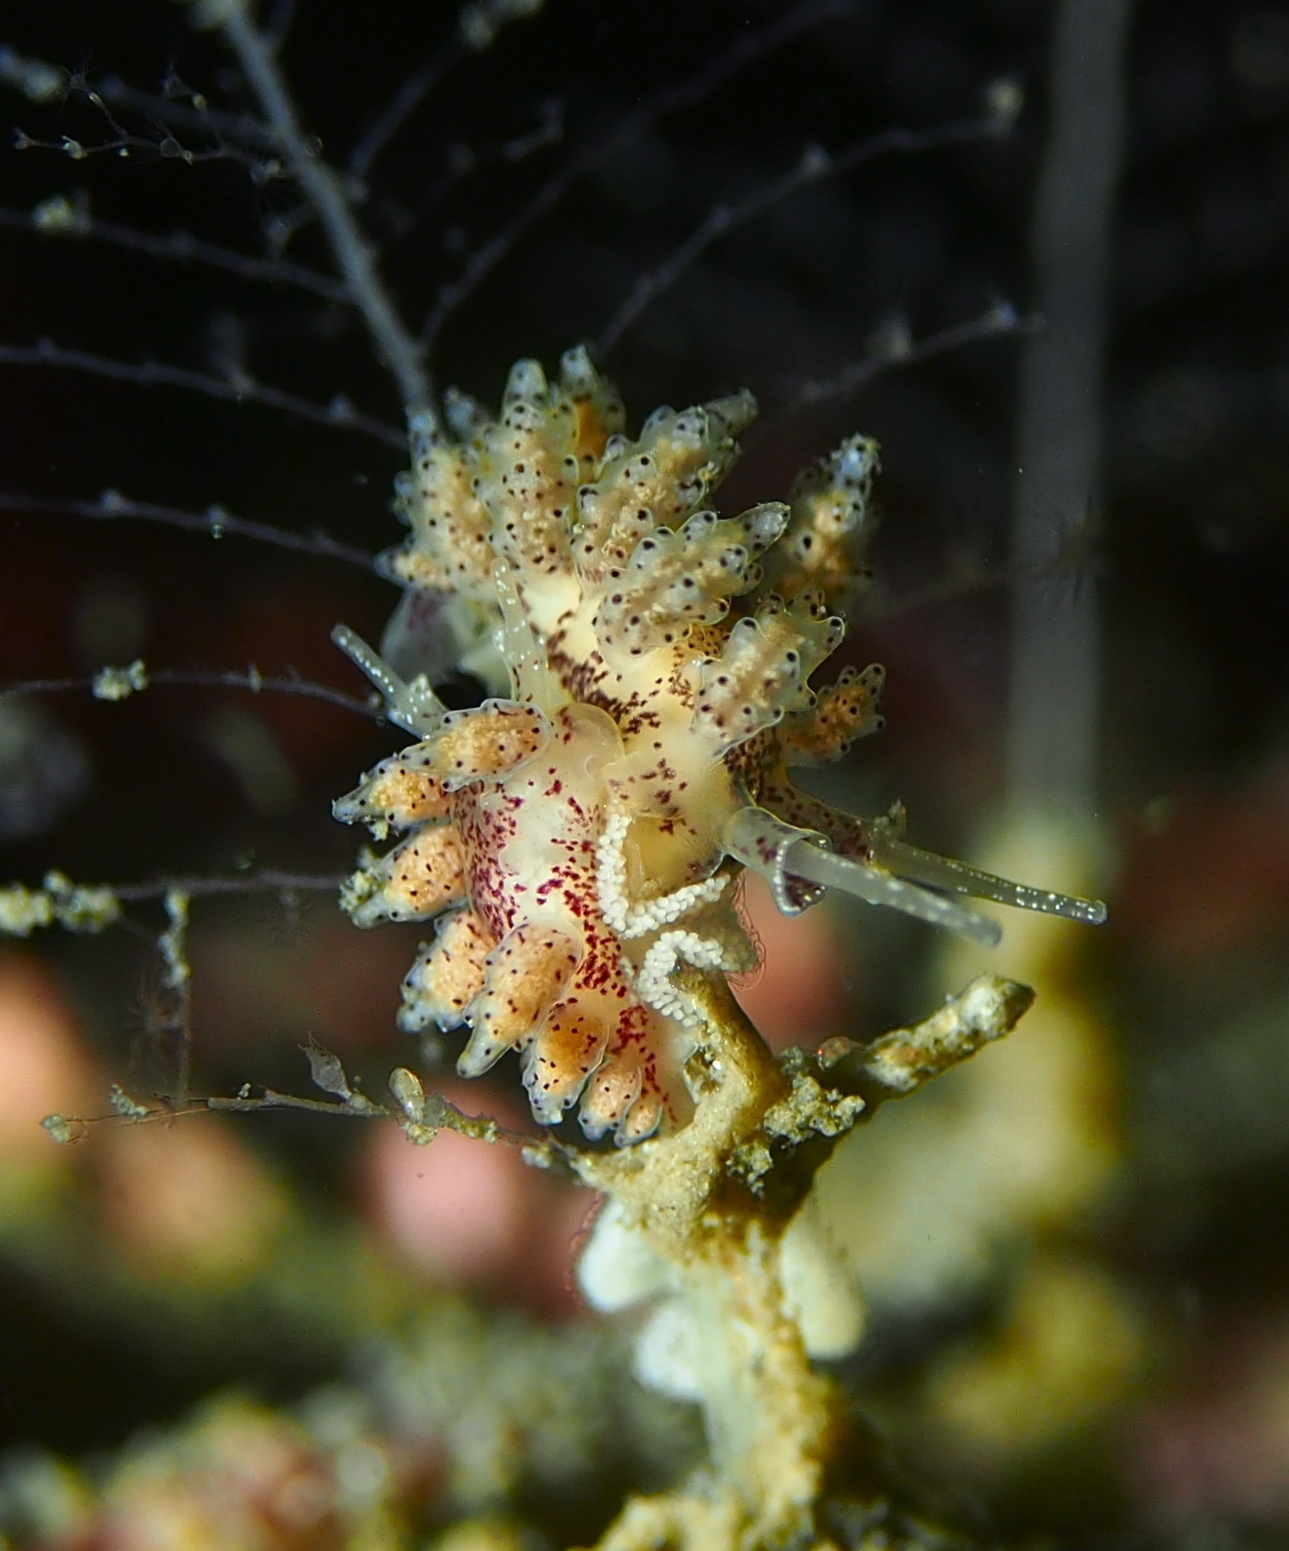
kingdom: Animalia
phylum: Mollusca
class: Gastropoda
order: Nudibranchia
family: Dotidae
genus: Doto
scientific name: Doto dunnei
